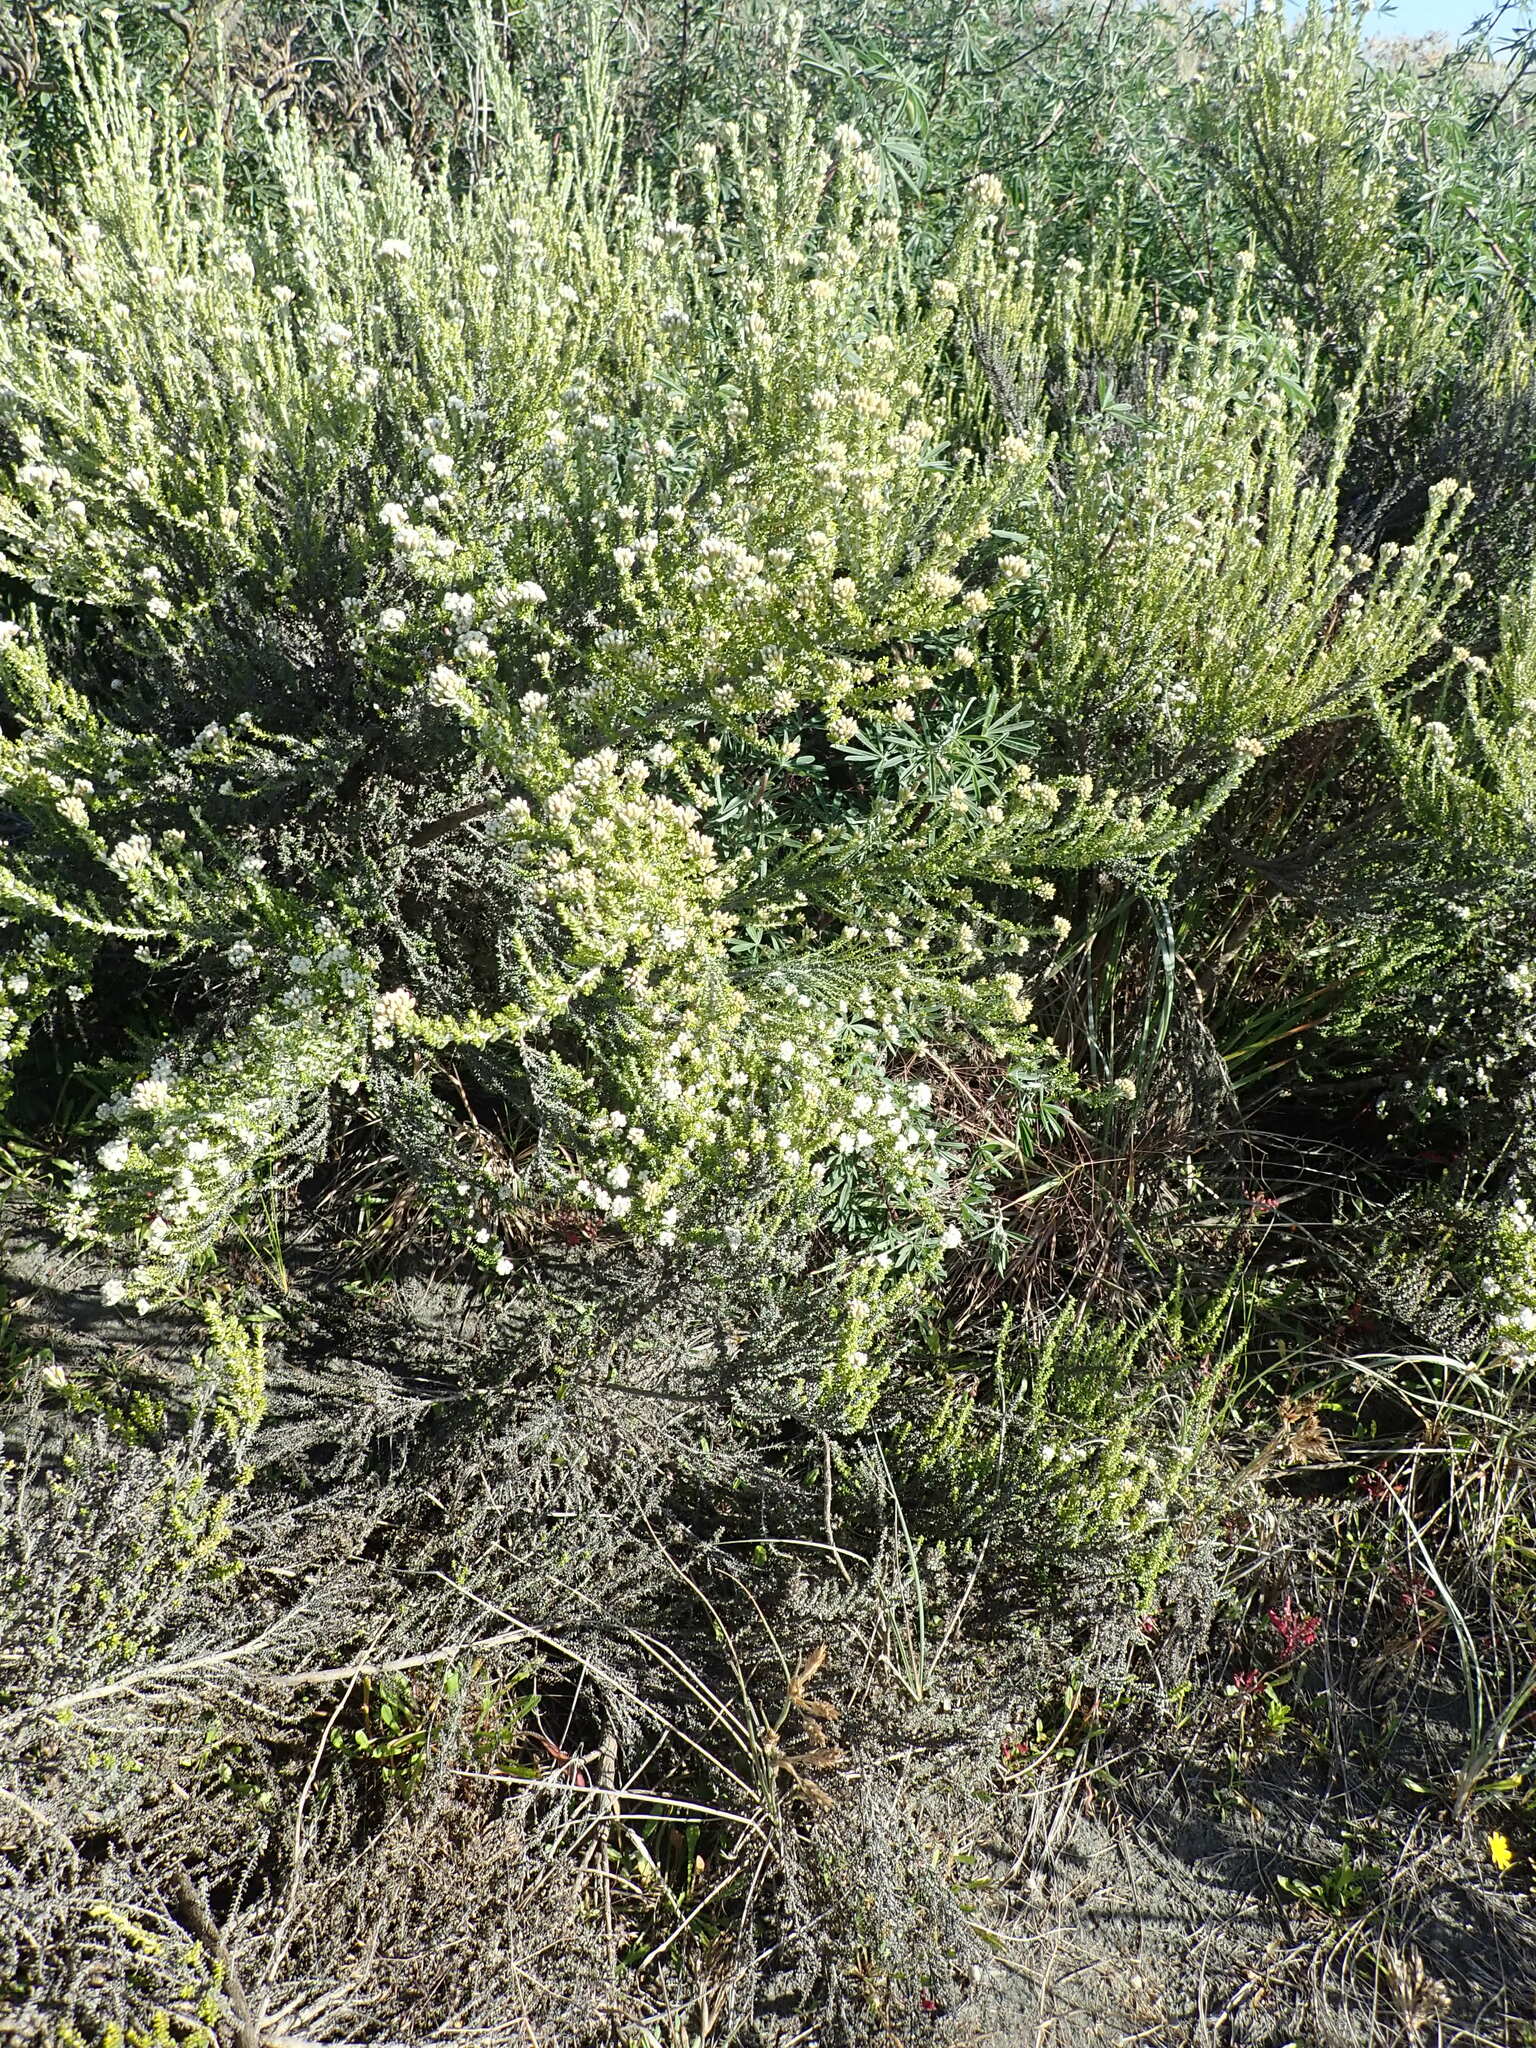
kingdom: Plantae
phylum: Tracheophyta
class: Magnoliopsida
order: Asterales
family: Asteraceae
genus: Ozothamnus
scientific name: Ozothamnus leptophyllus
